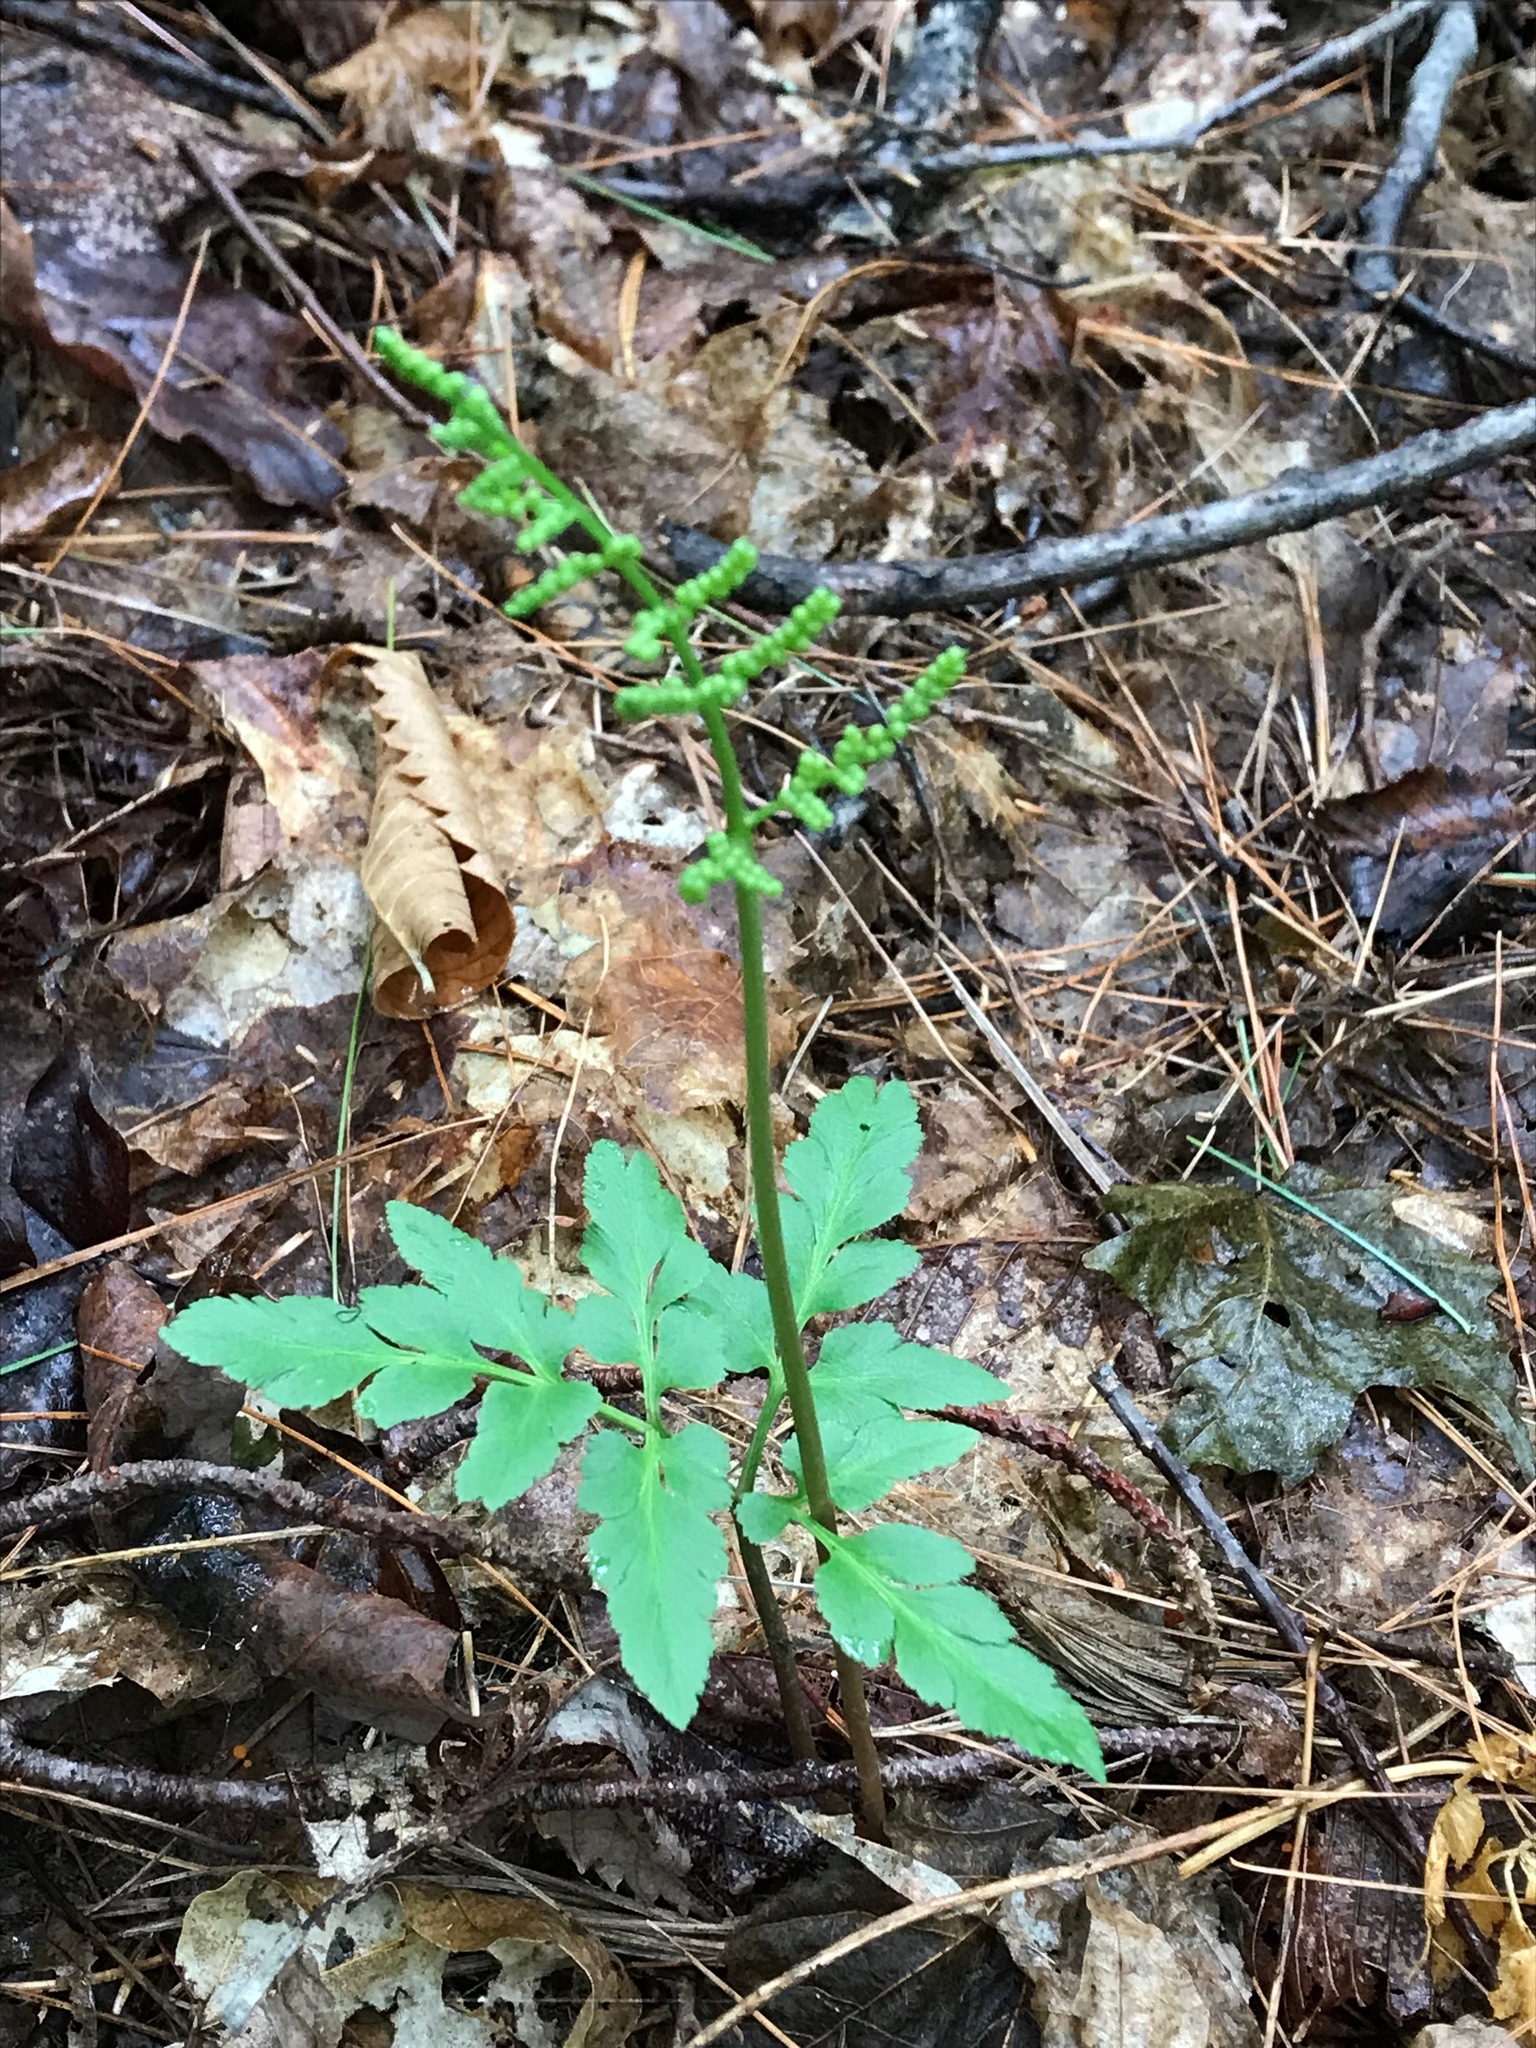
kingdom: Plantae
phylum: Tracheophyta
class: Polypodiopsida
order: Ophioglossales
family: Ophioglossaceae
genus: Sceptridium
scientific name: Sceptridium dissectum
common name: Cut-leaved grapefern
